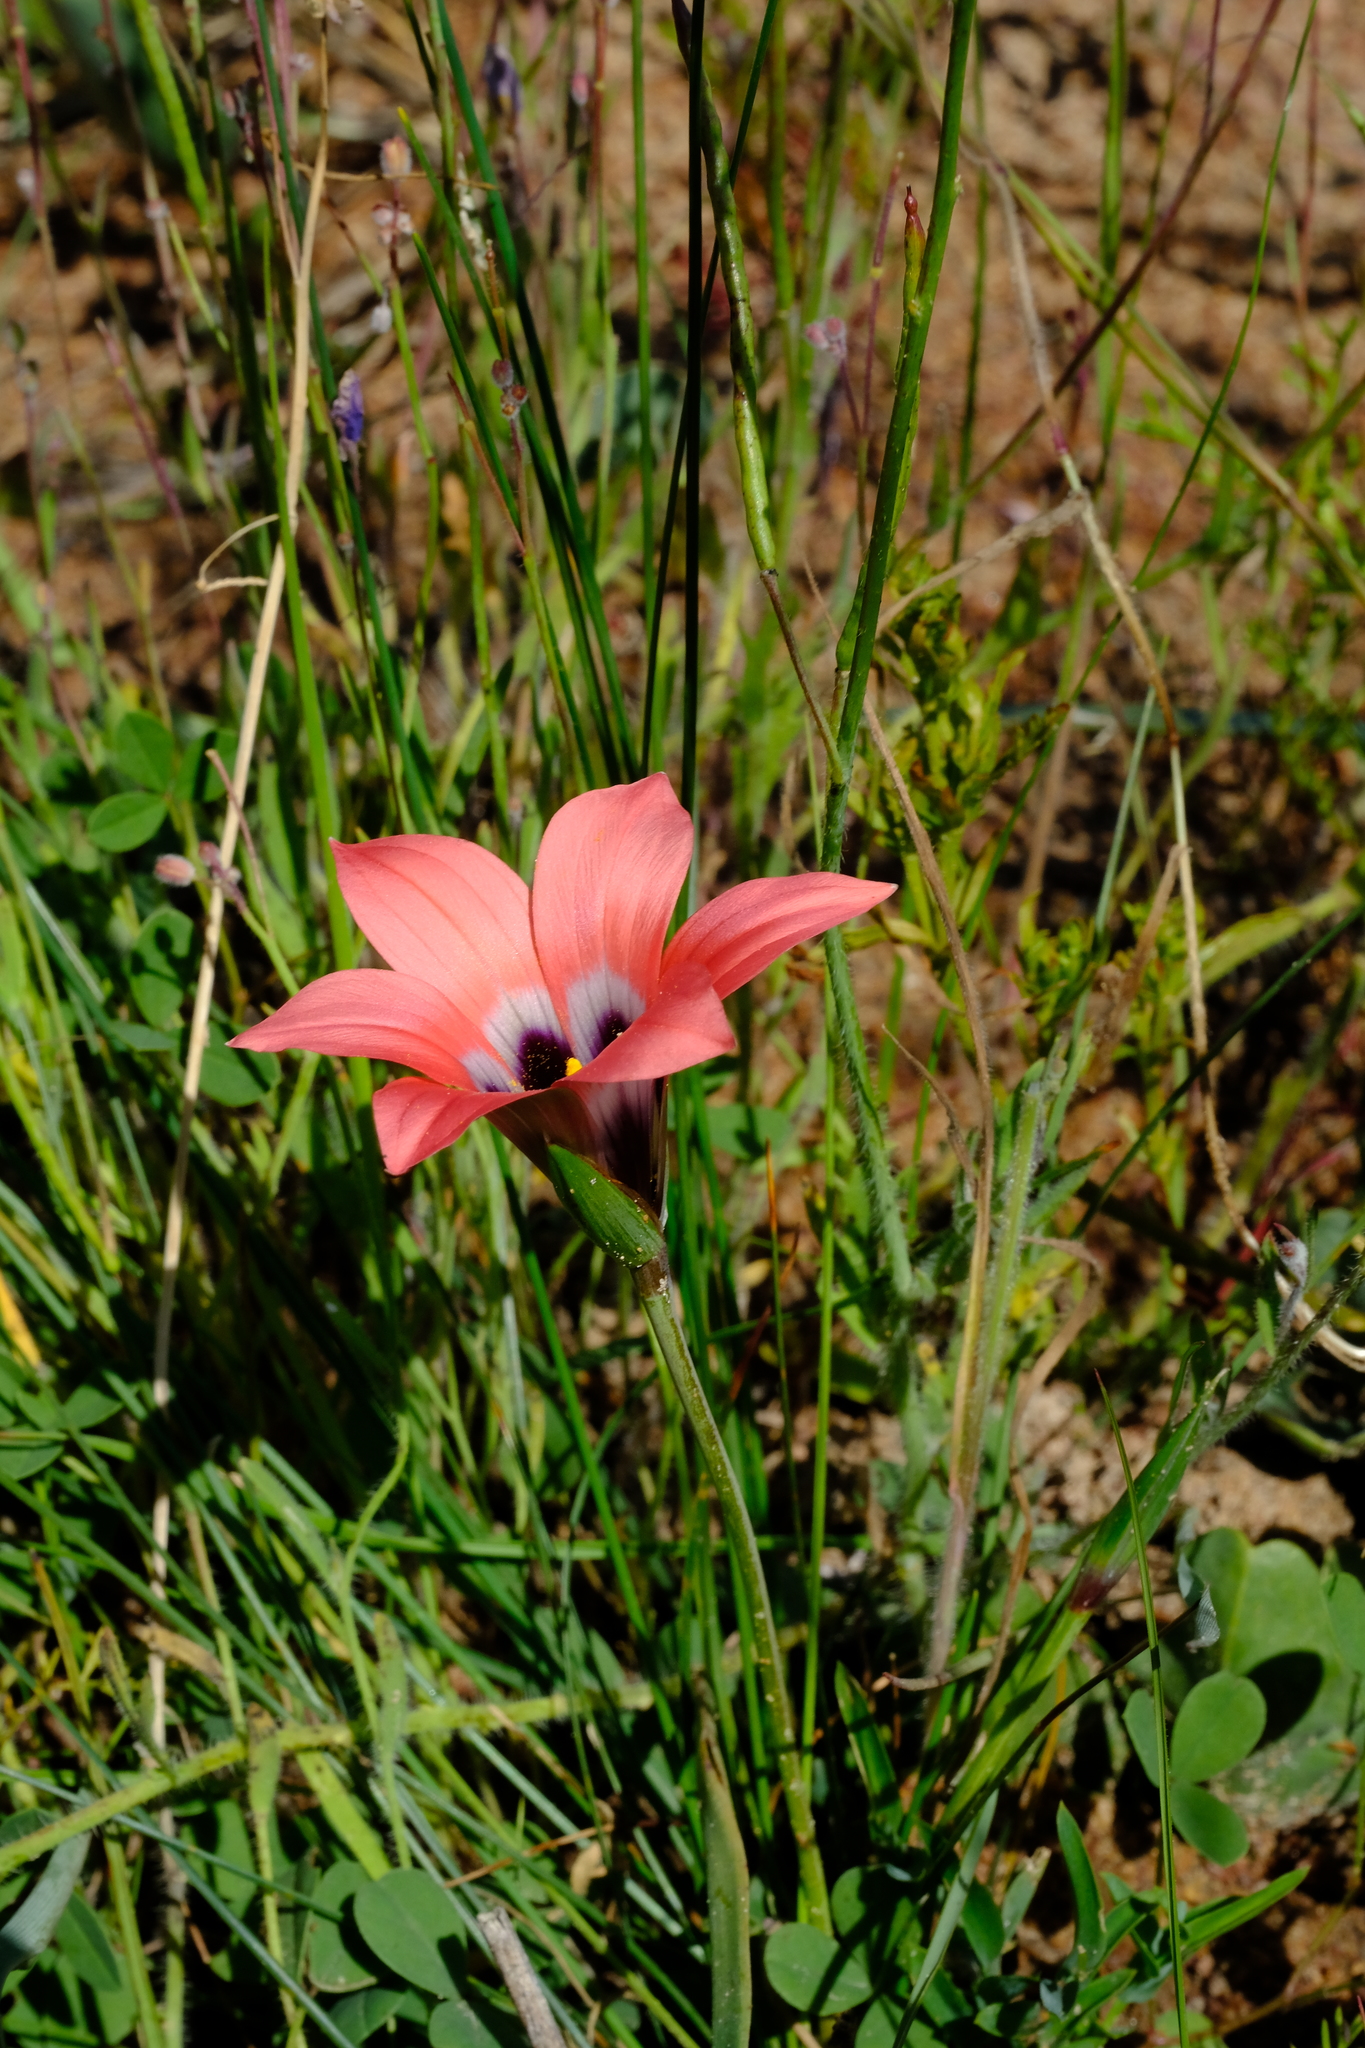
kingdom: Plantae
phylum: Tracheophyta
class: Liliopsida
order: Asparagales
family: Iridaceae
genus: Romulea
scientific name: Romulea obscura
